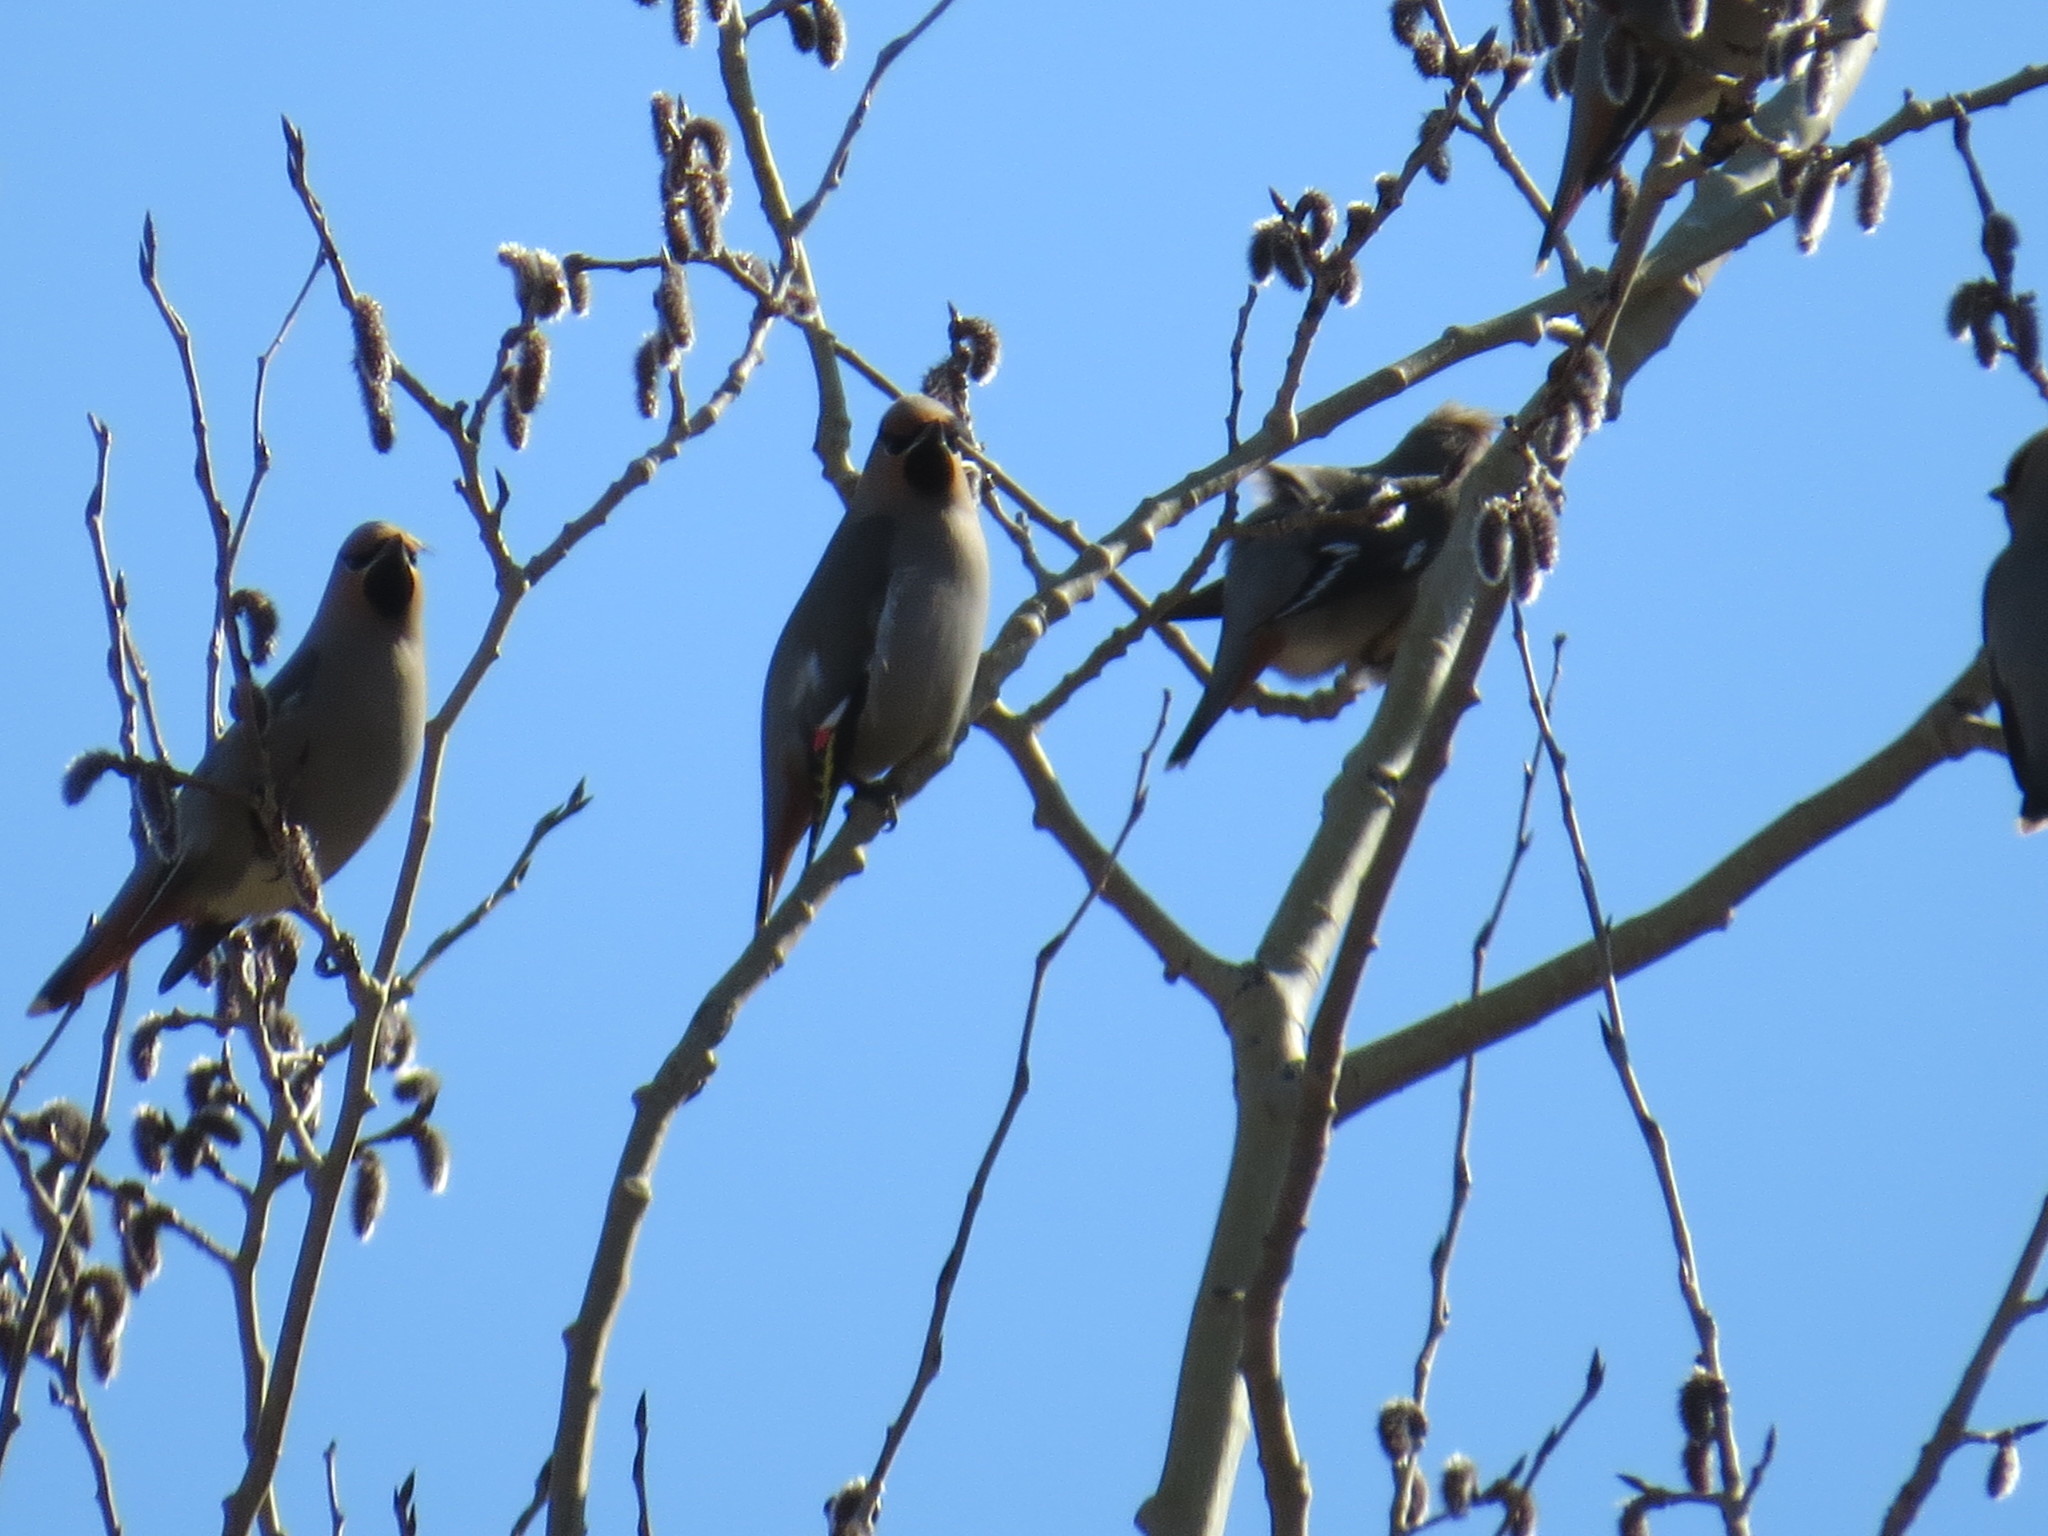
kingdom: Animalia
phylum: Chordata
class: Aves
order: Passeriformes
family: Bombycillidae
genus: Bombycilla
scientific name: Bombycilla garrulus
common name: Bohemian waxwing
